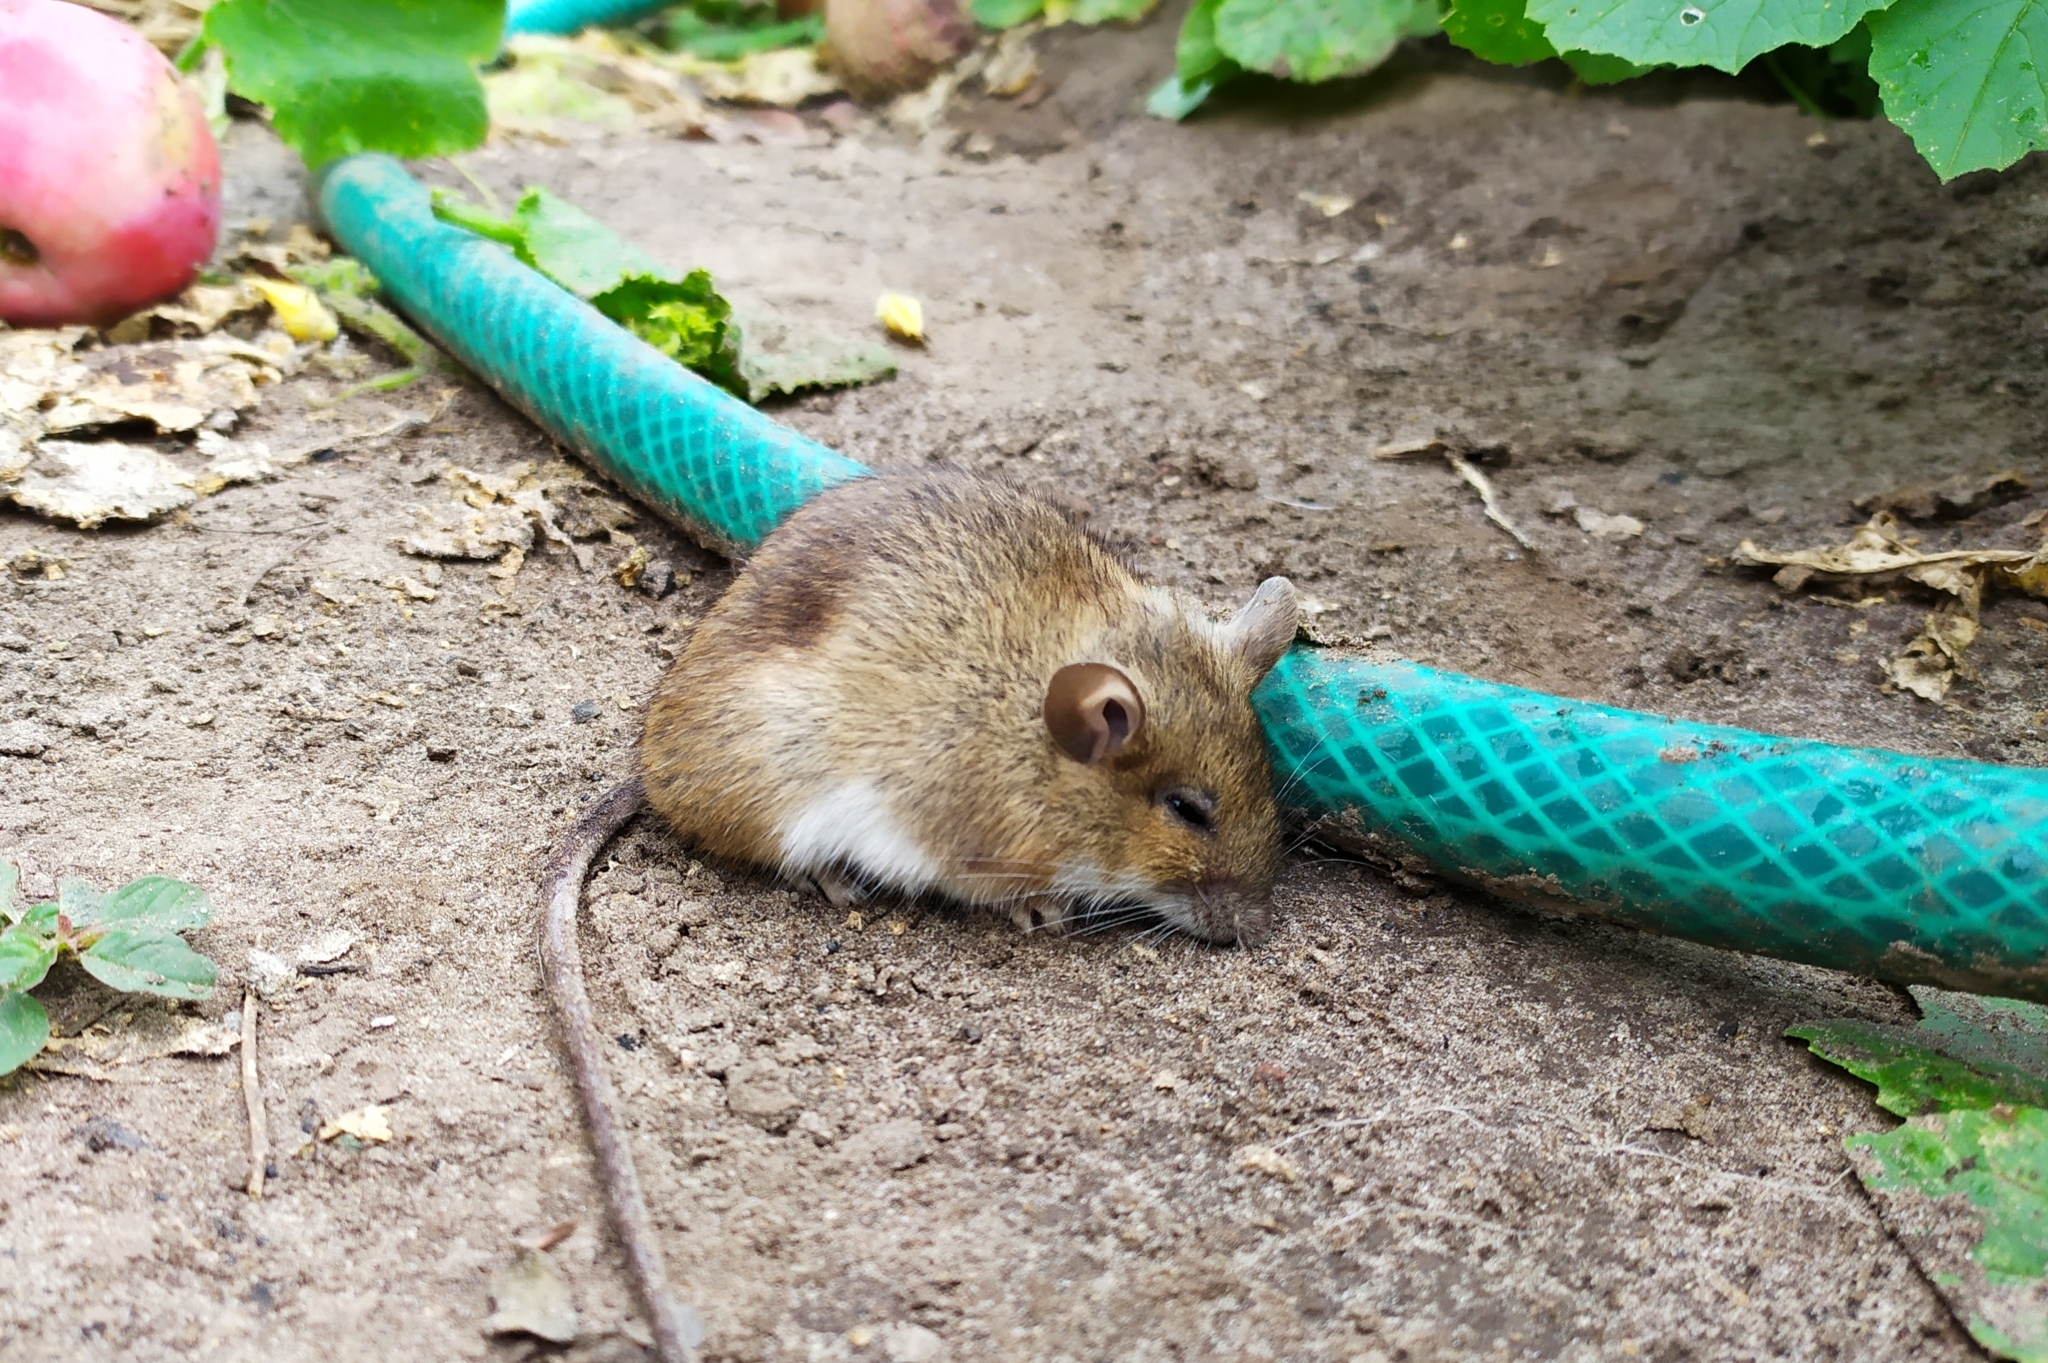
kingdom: Animalia
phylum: Chordata
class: Mammalia
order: Rodentia
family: Muridae
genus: Apodemus
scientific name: Apodemus flavicollis
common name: Yellow-necked field mouse
